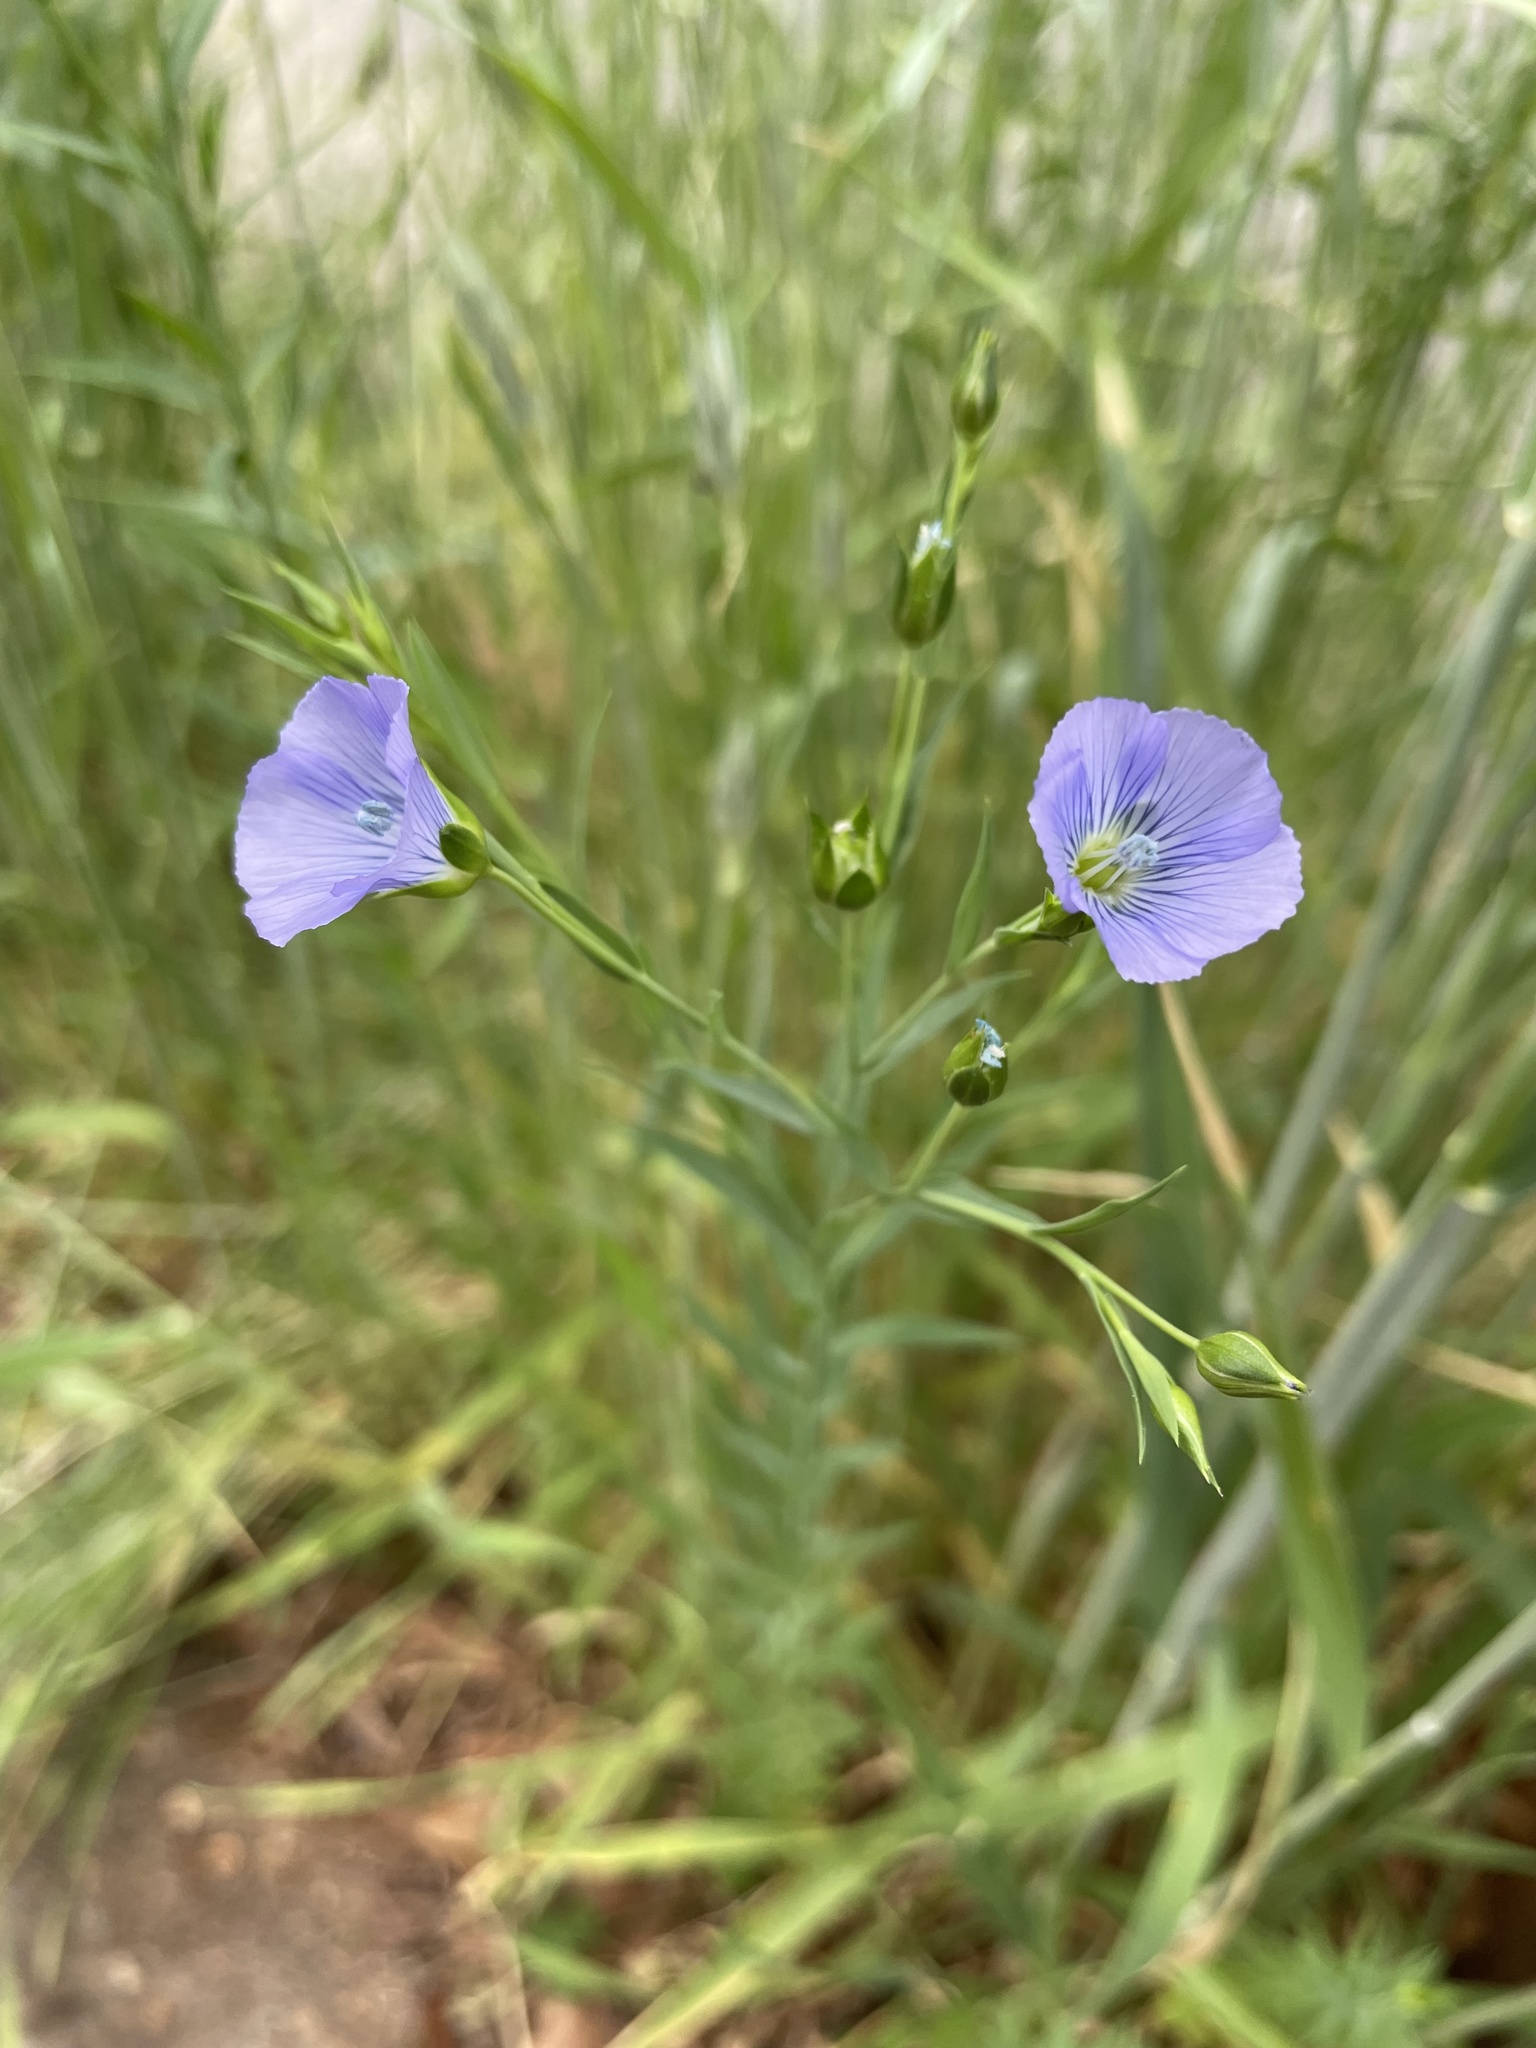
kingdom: Plantae
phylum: Tracheophyta
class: Magnoliopsida
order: Malpighiales
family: Linaceae
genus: Linum
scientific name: Linum usitatissimum
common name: Flax
